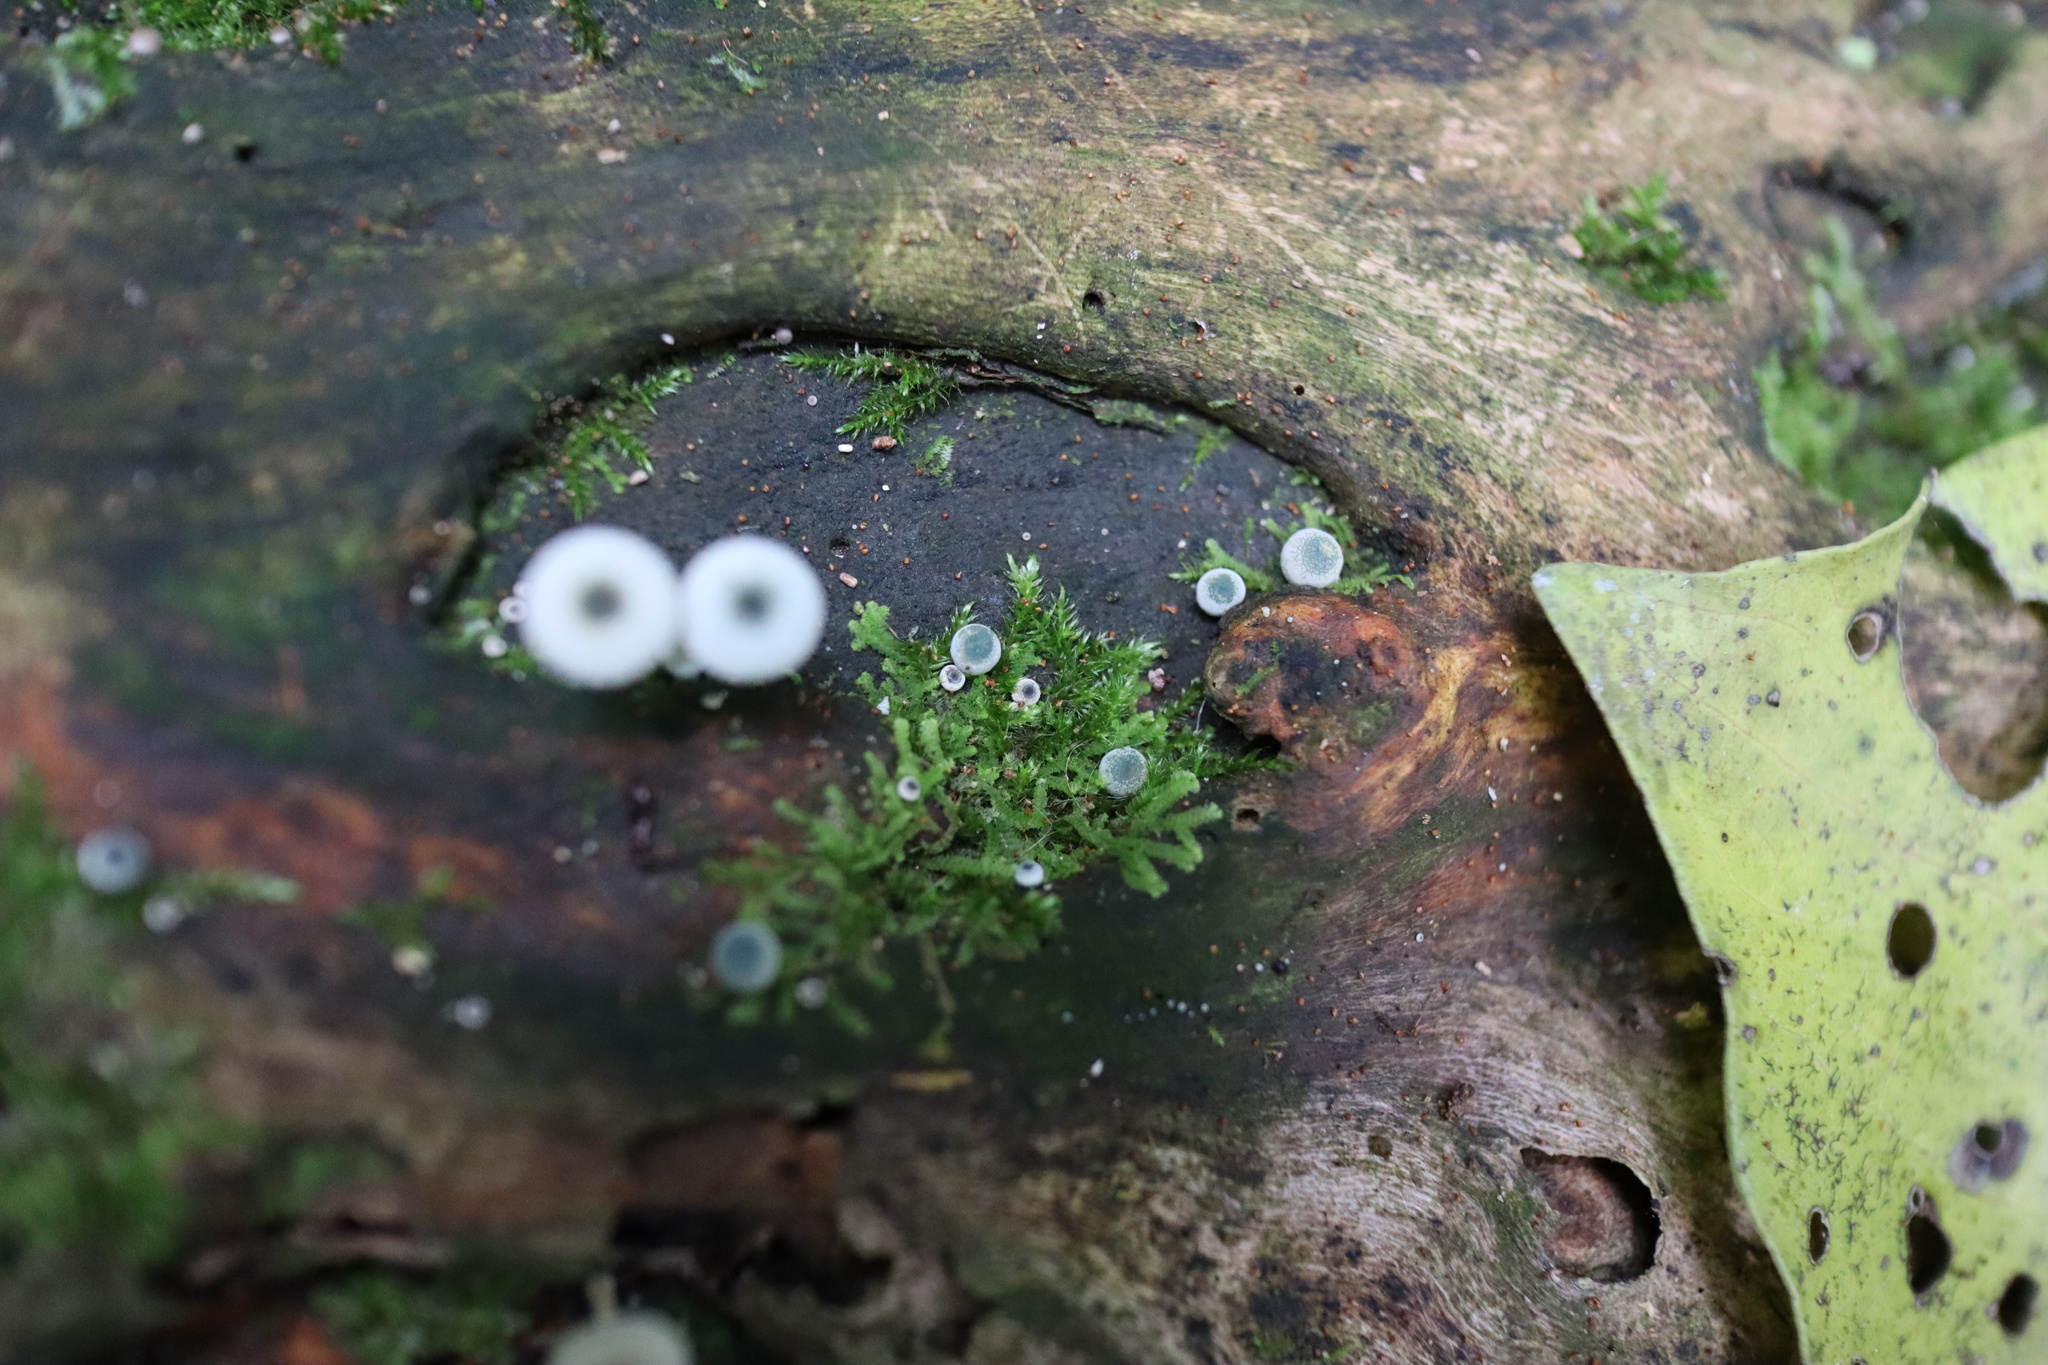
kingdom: Fungi
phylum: Basidiomycota
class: Agaricomycetes
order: Agaricales
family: Mycenaceae
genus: Mycena
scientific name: Mycena interrupta
